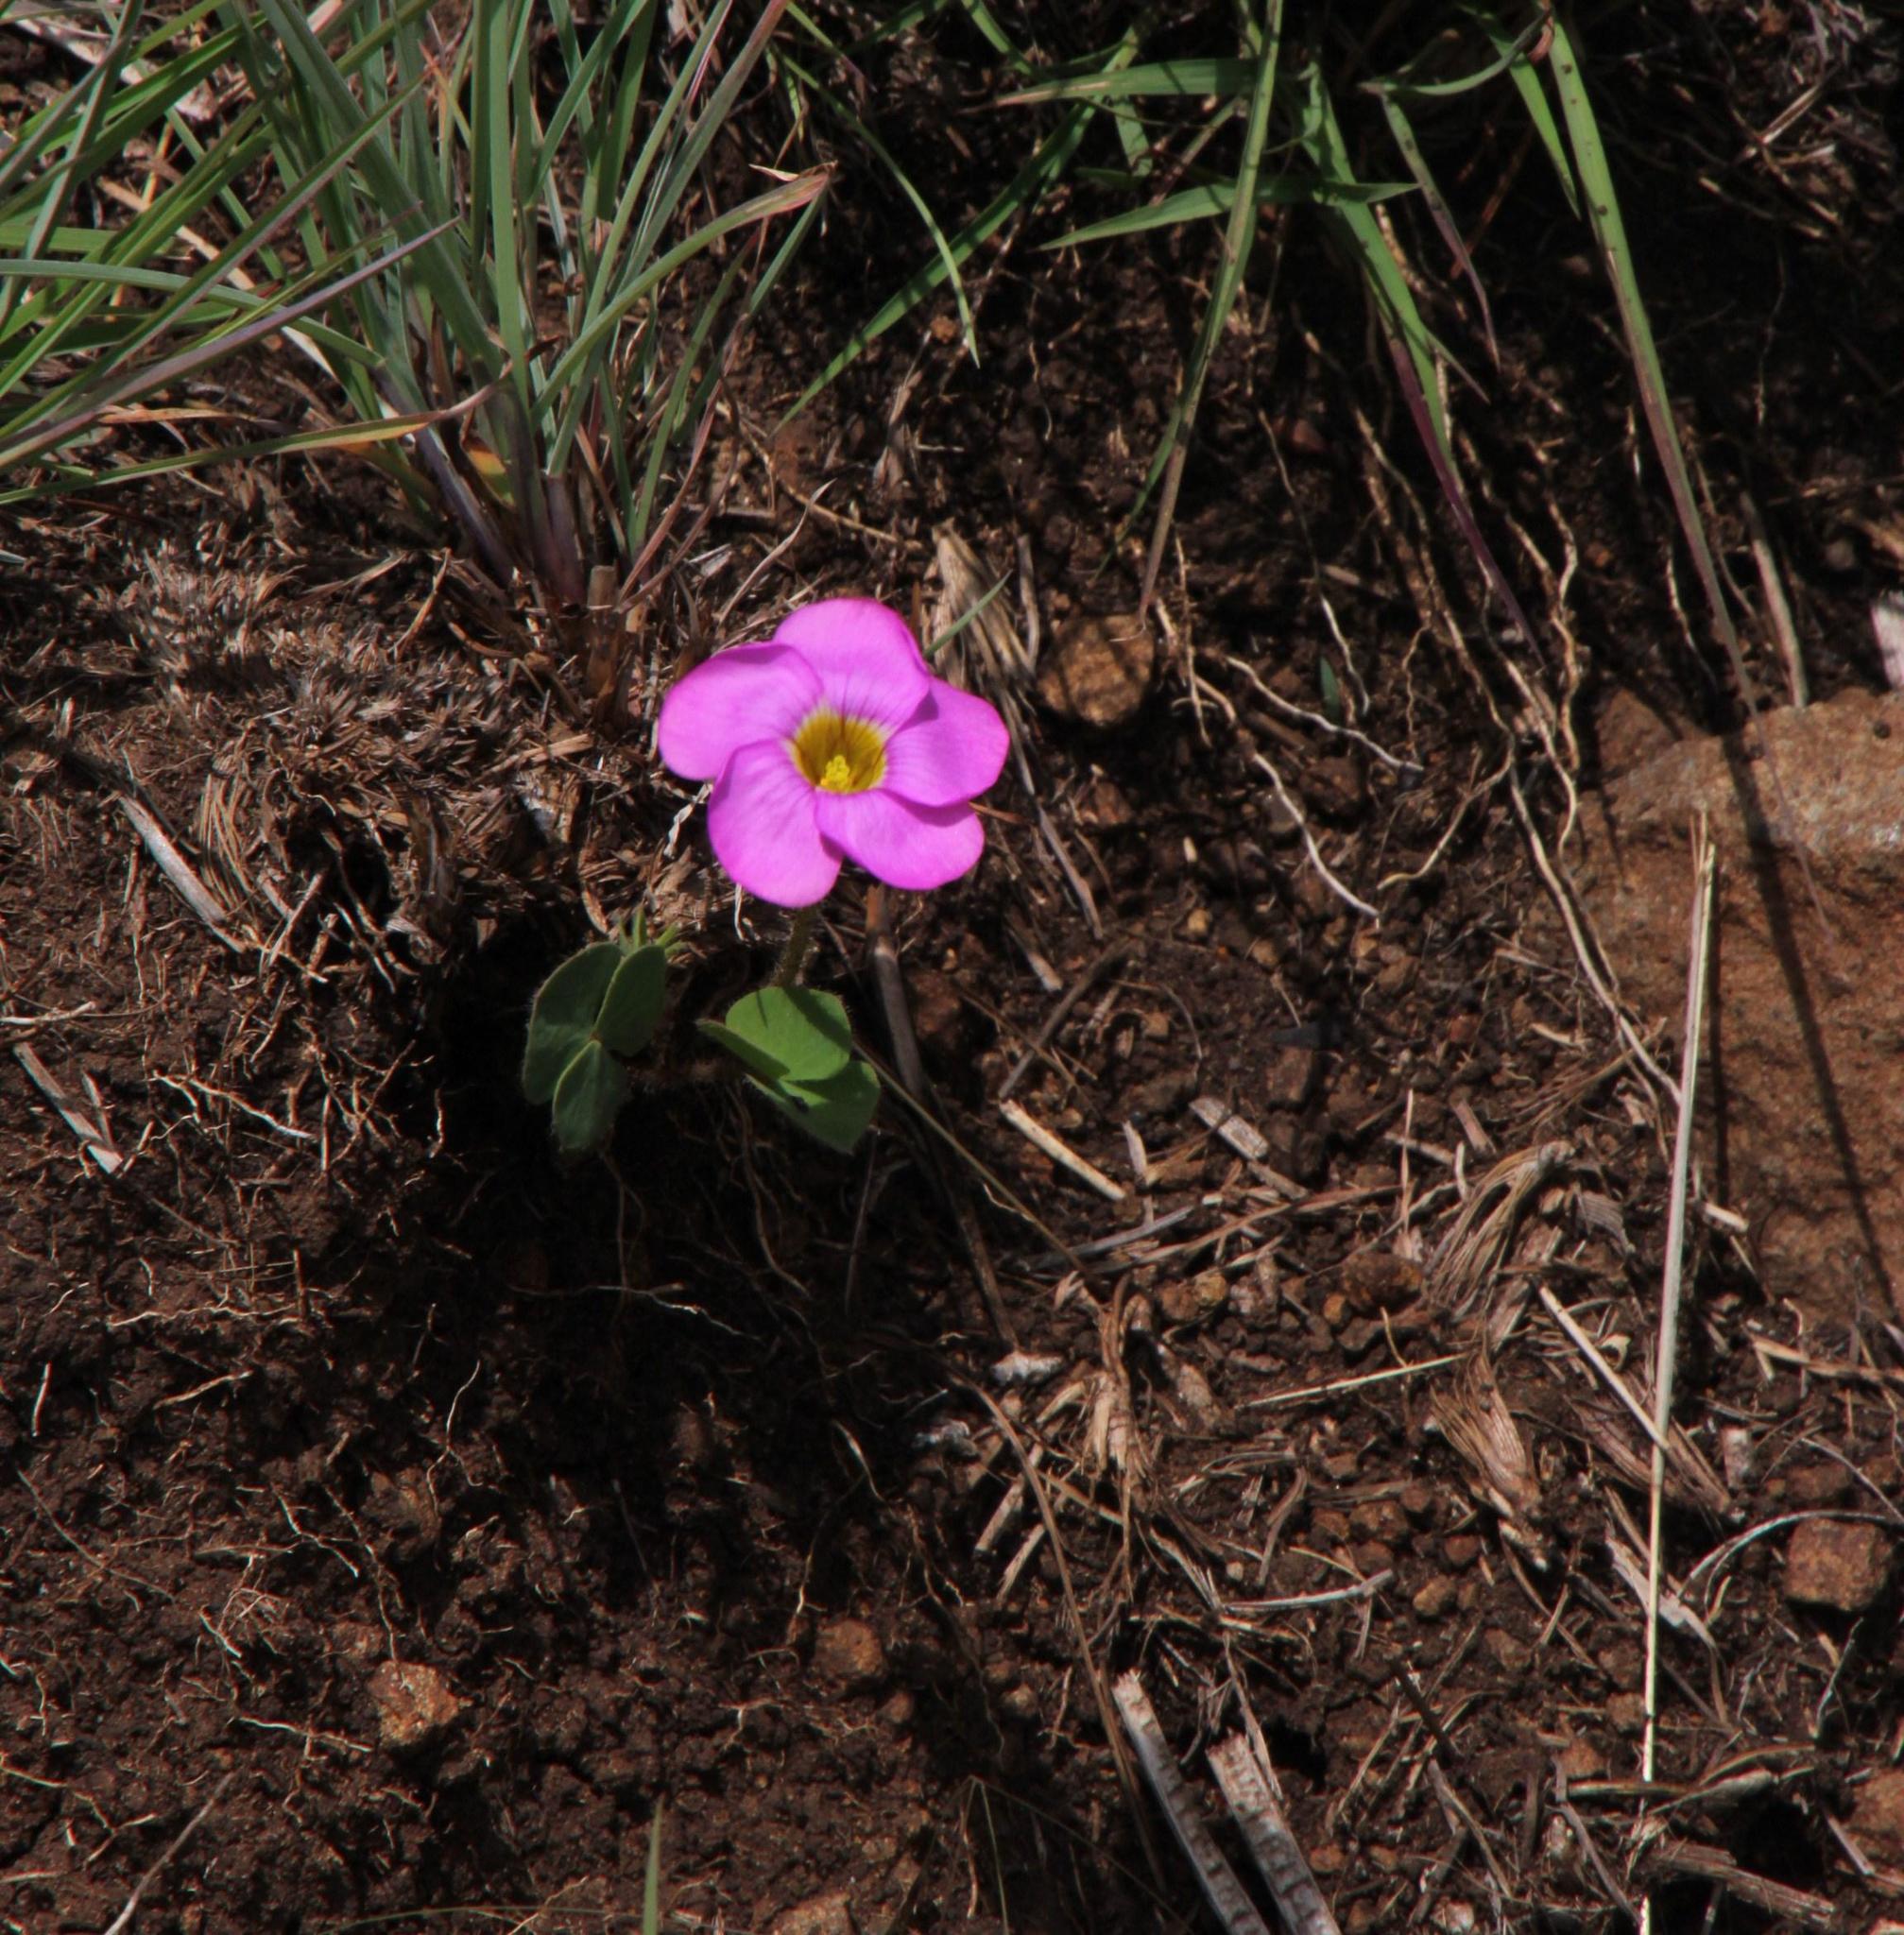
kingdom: Plantae
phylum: Tracheophyta
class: Magnoliopsida
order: Oxalidales
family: Oxalidaceae
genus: Oxalis
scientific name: Oxalis obliquifolia
